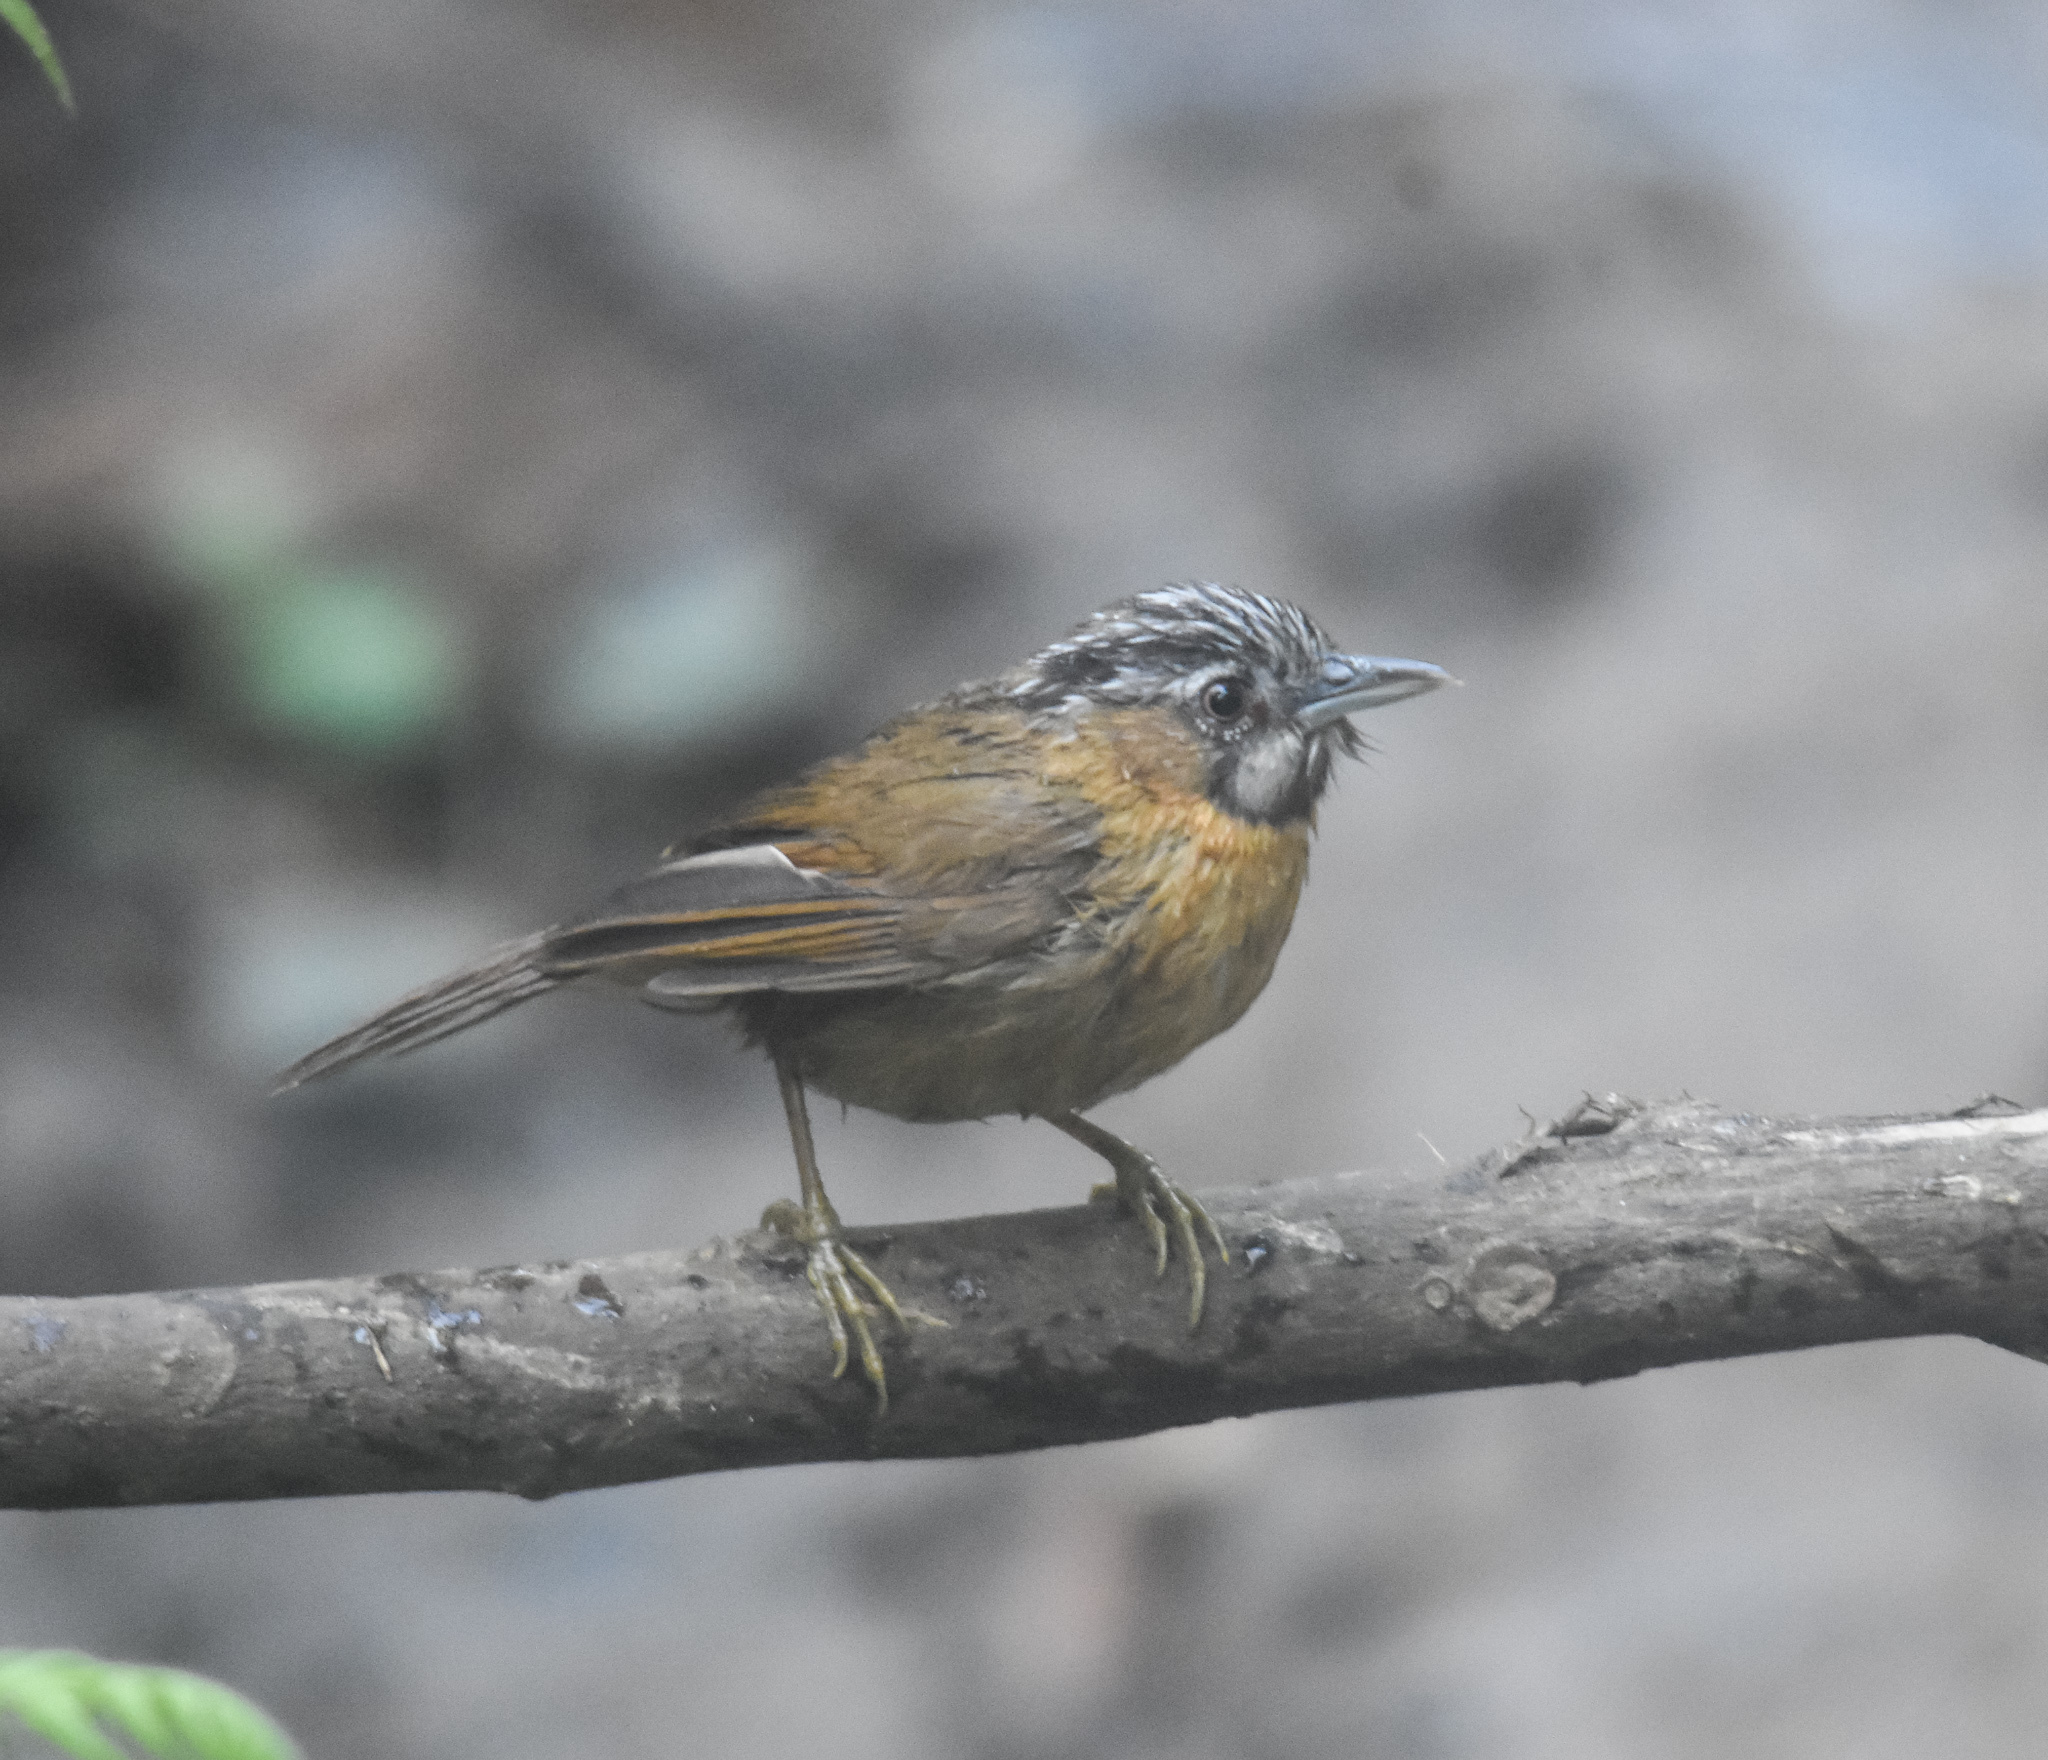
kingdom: Animalia
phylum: Chordata
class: Aves
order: Passeriformes
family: Timaliidae
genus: Stachyris
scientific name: Stachyris nigriceps
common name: Grey-throated babbler
